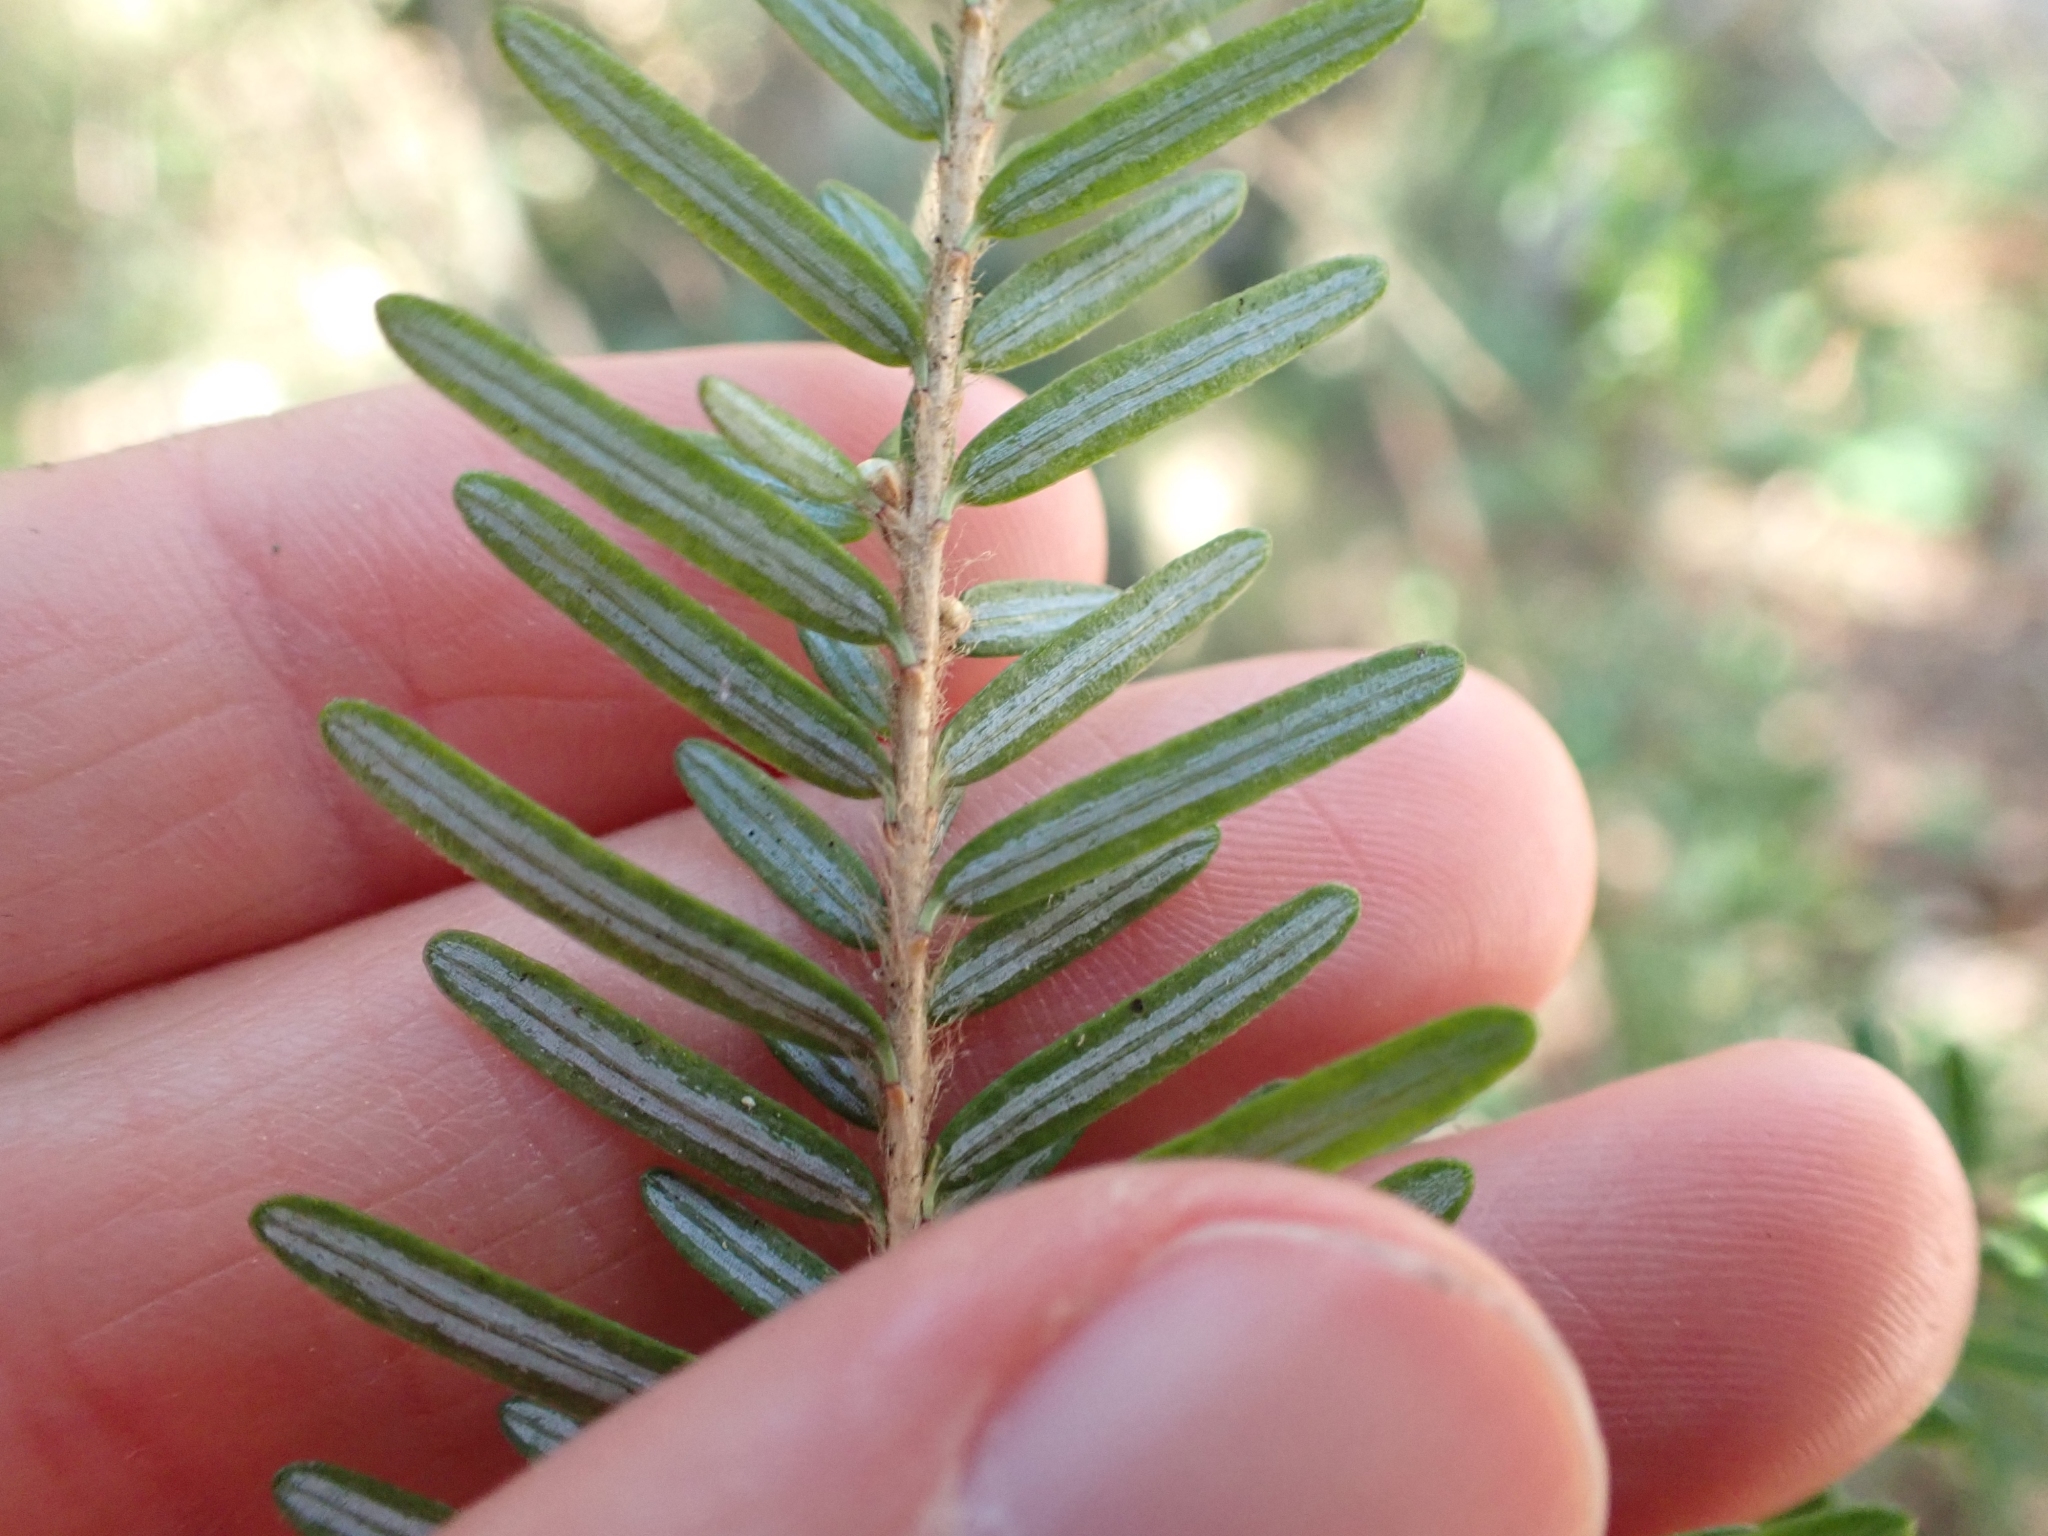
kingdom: Plantae
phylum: Tracheophyta
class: Pinopsida
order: Pinales
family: Pinaceae
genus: Tsuga
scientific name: Tsuga heterophylla
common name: Western hemlock
